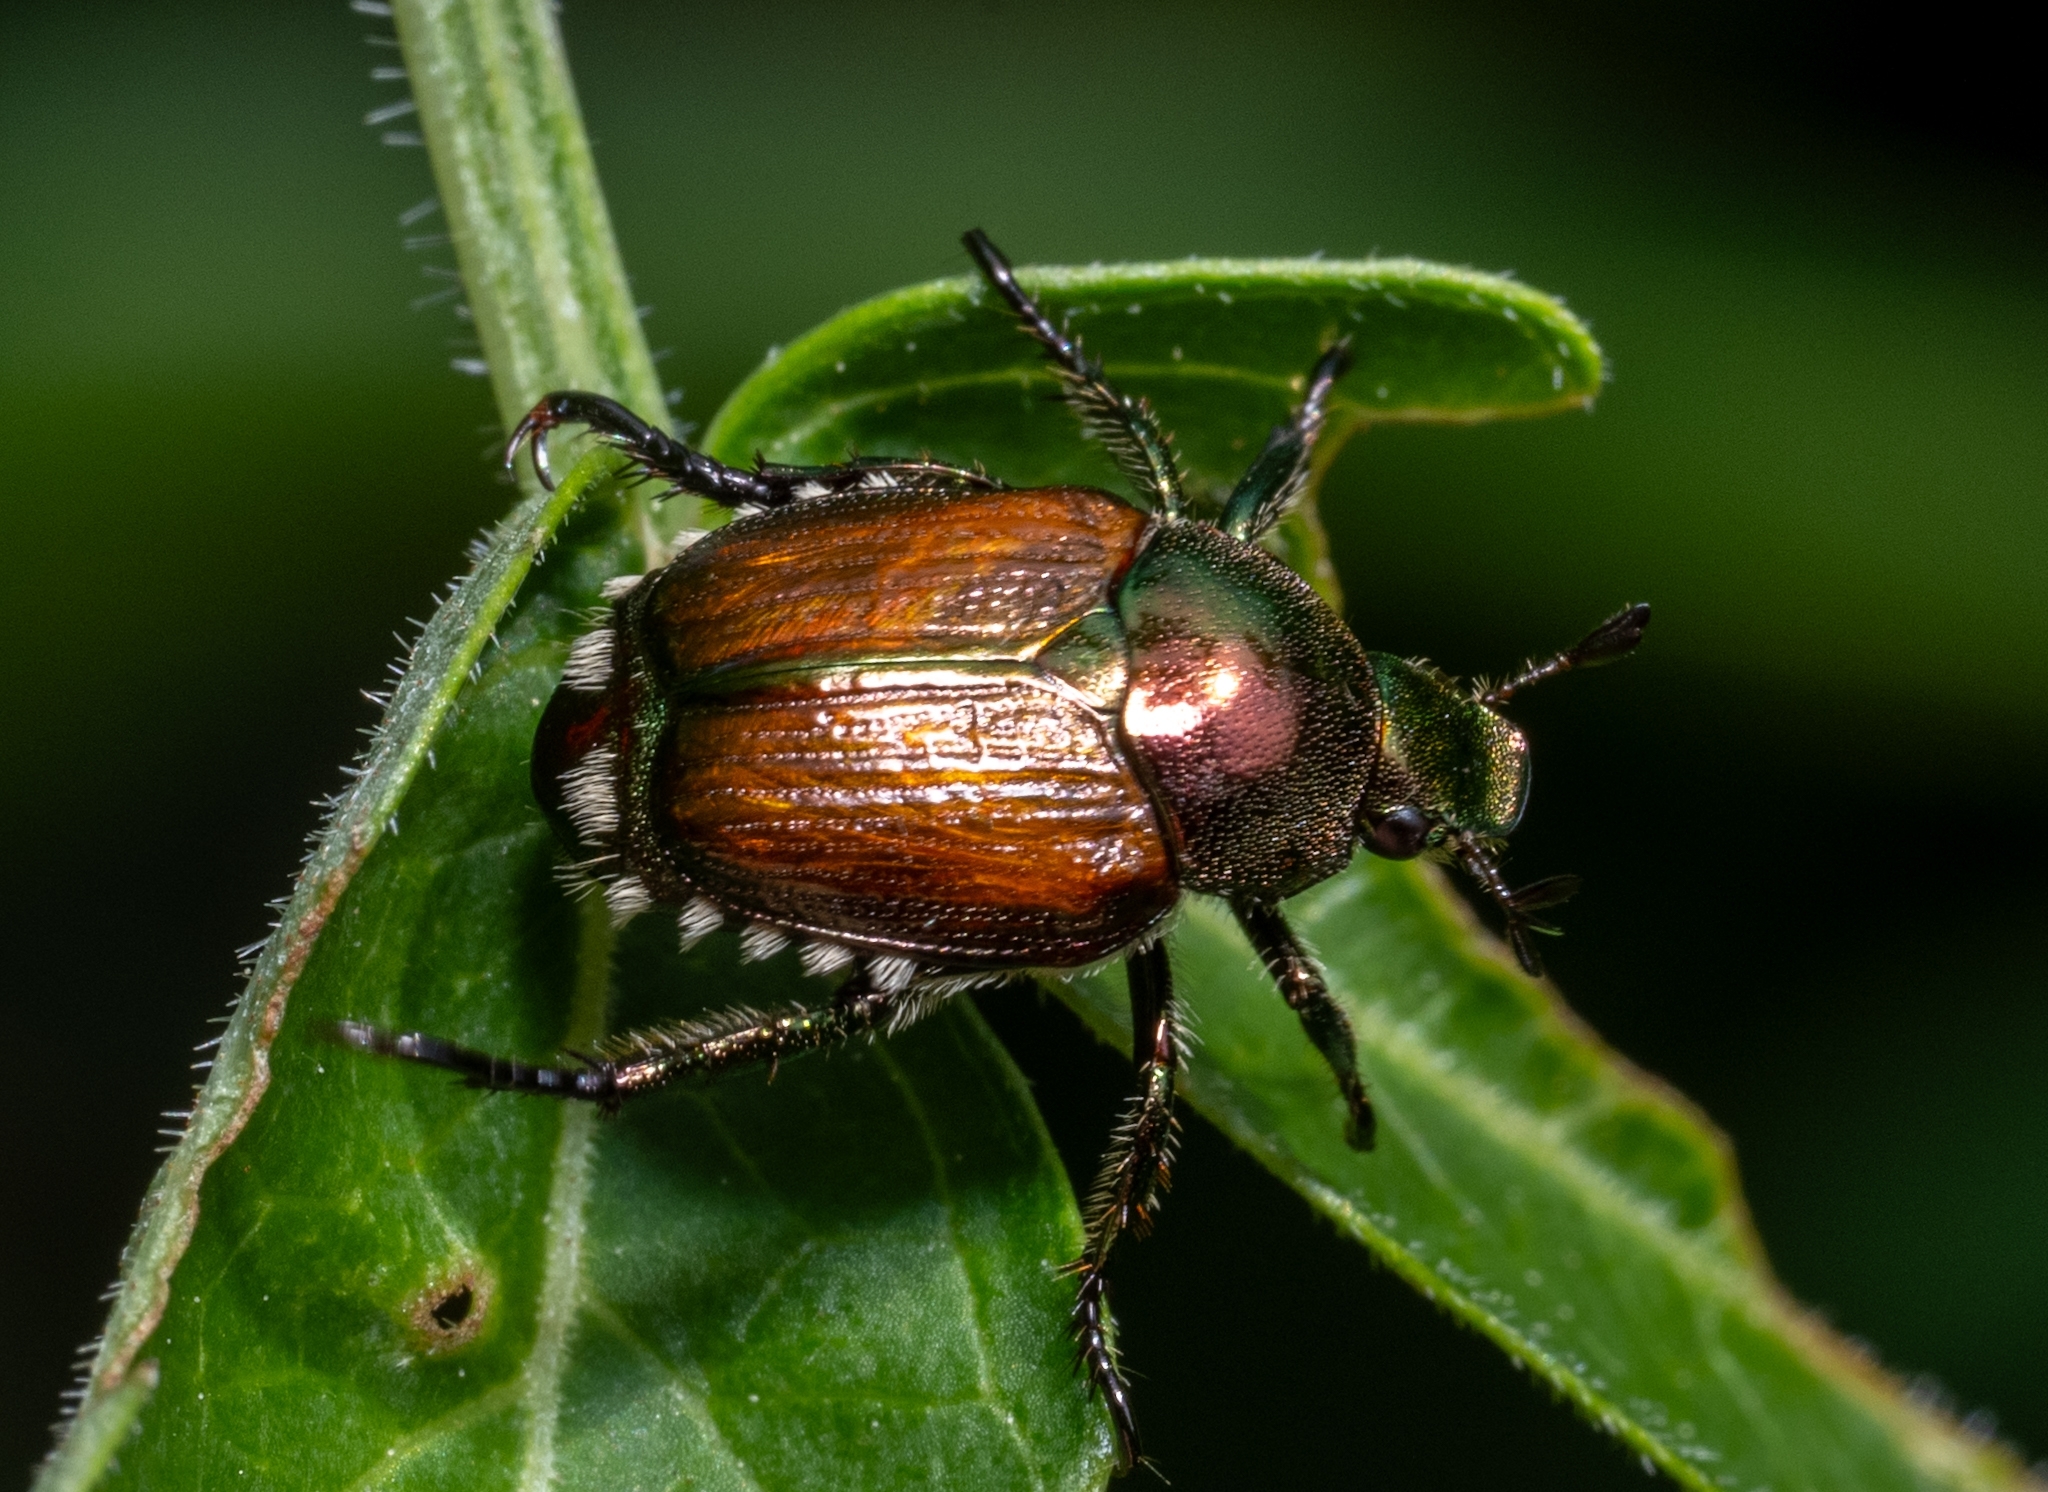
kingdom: Animalia
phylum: Arthropoda
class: Insecta
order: Coleoptera
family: Scarabaeidae
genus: Popillia
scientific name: Popillia japonica
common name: Japanese beetle
